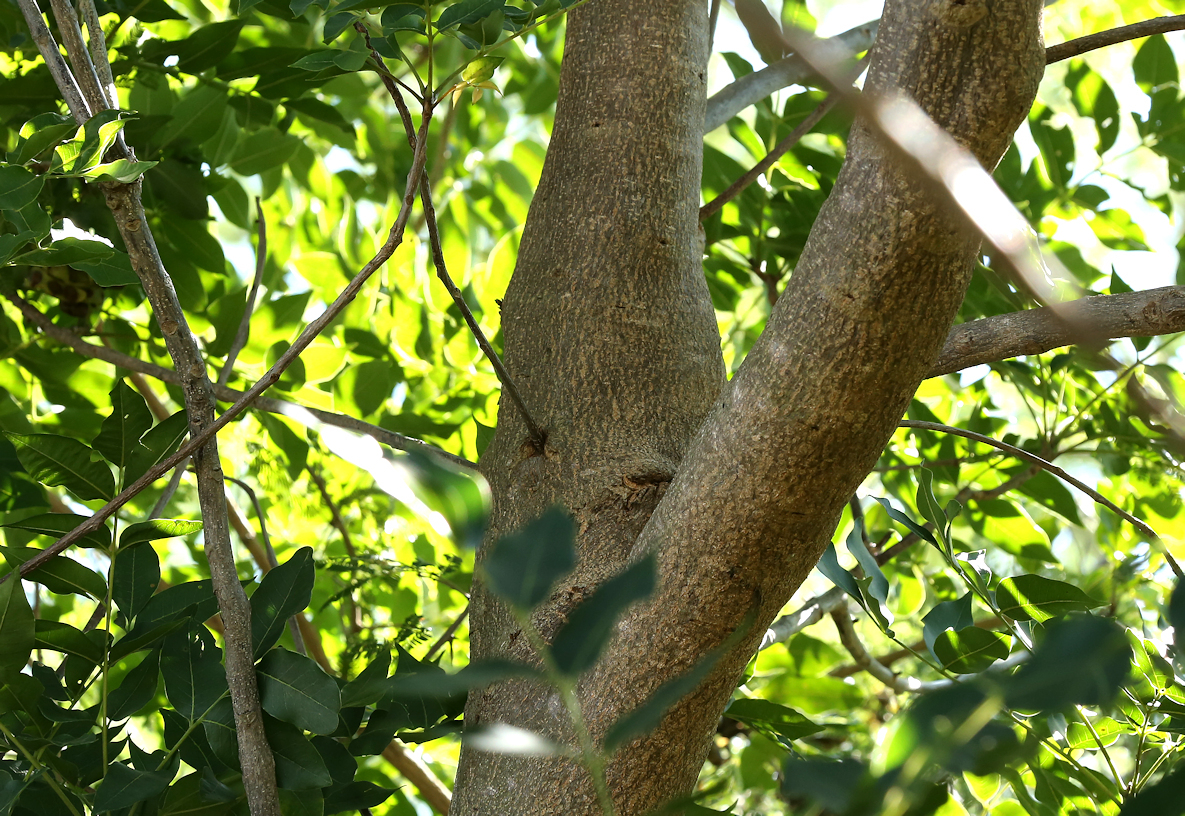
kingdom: Plantae
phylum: Tracheophyta
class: Magnoliopsida
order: Sapindales
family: Meliaceae
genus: Ekebergia
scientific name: Ekebergia capensis
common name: Cape-ash
